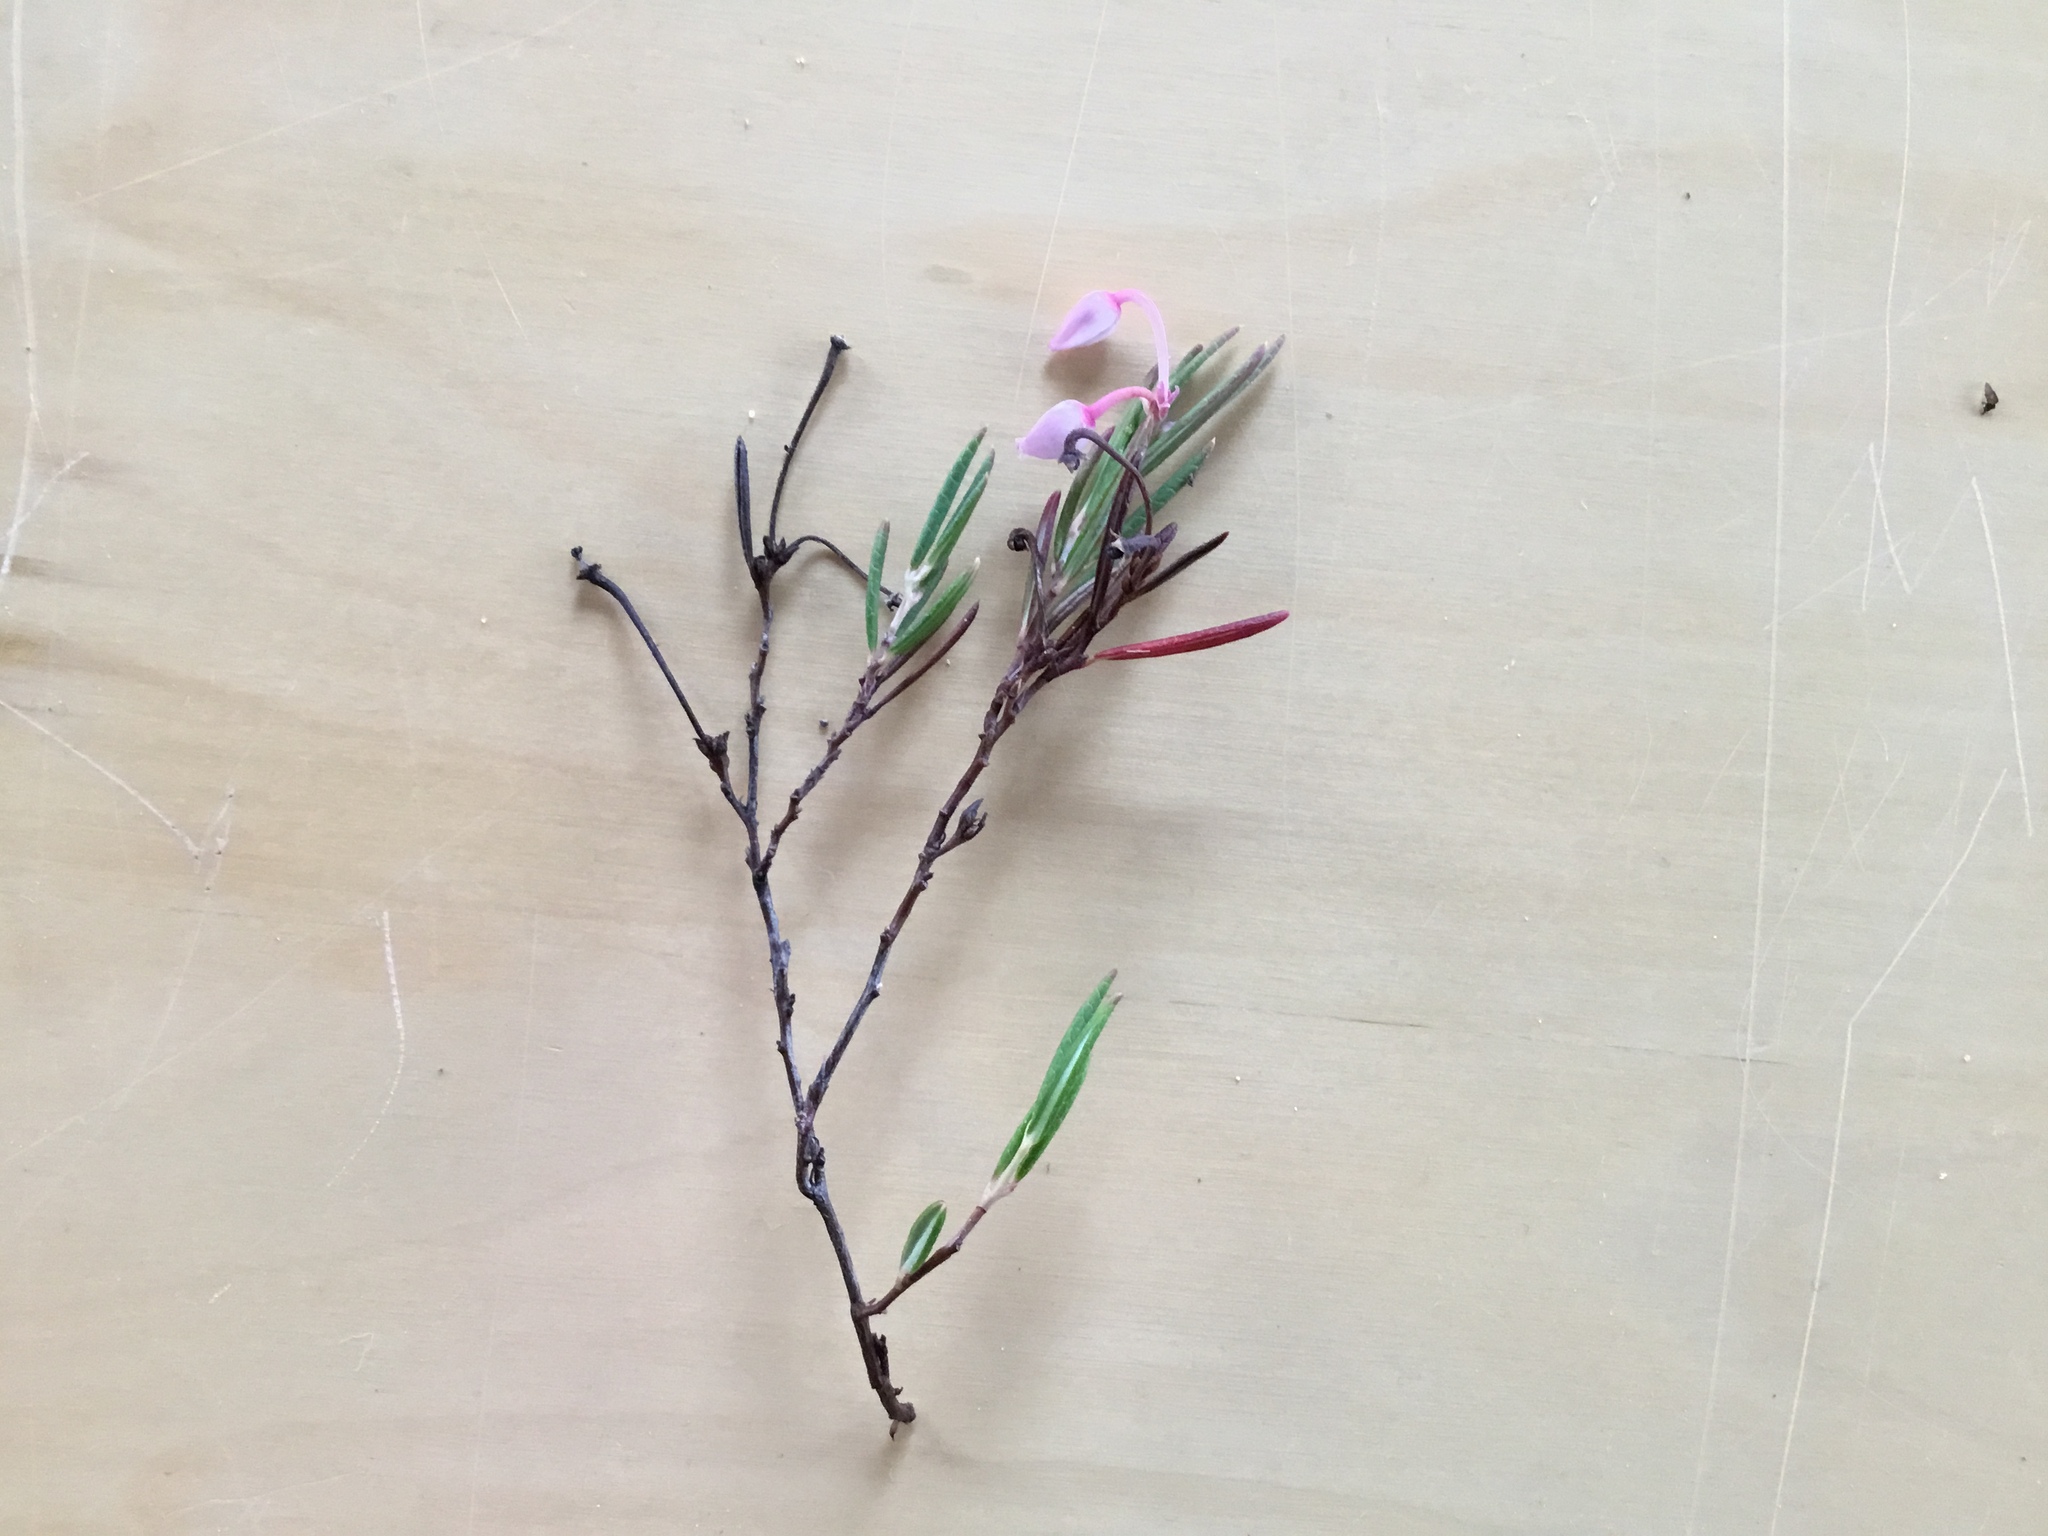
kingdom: Plantae
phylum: Tracheophyta
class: Magnoliopsida
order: Ericales
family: Ericaceae
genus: Andromeda
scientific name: Andromeda polifolia
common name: Bog-rosemary
